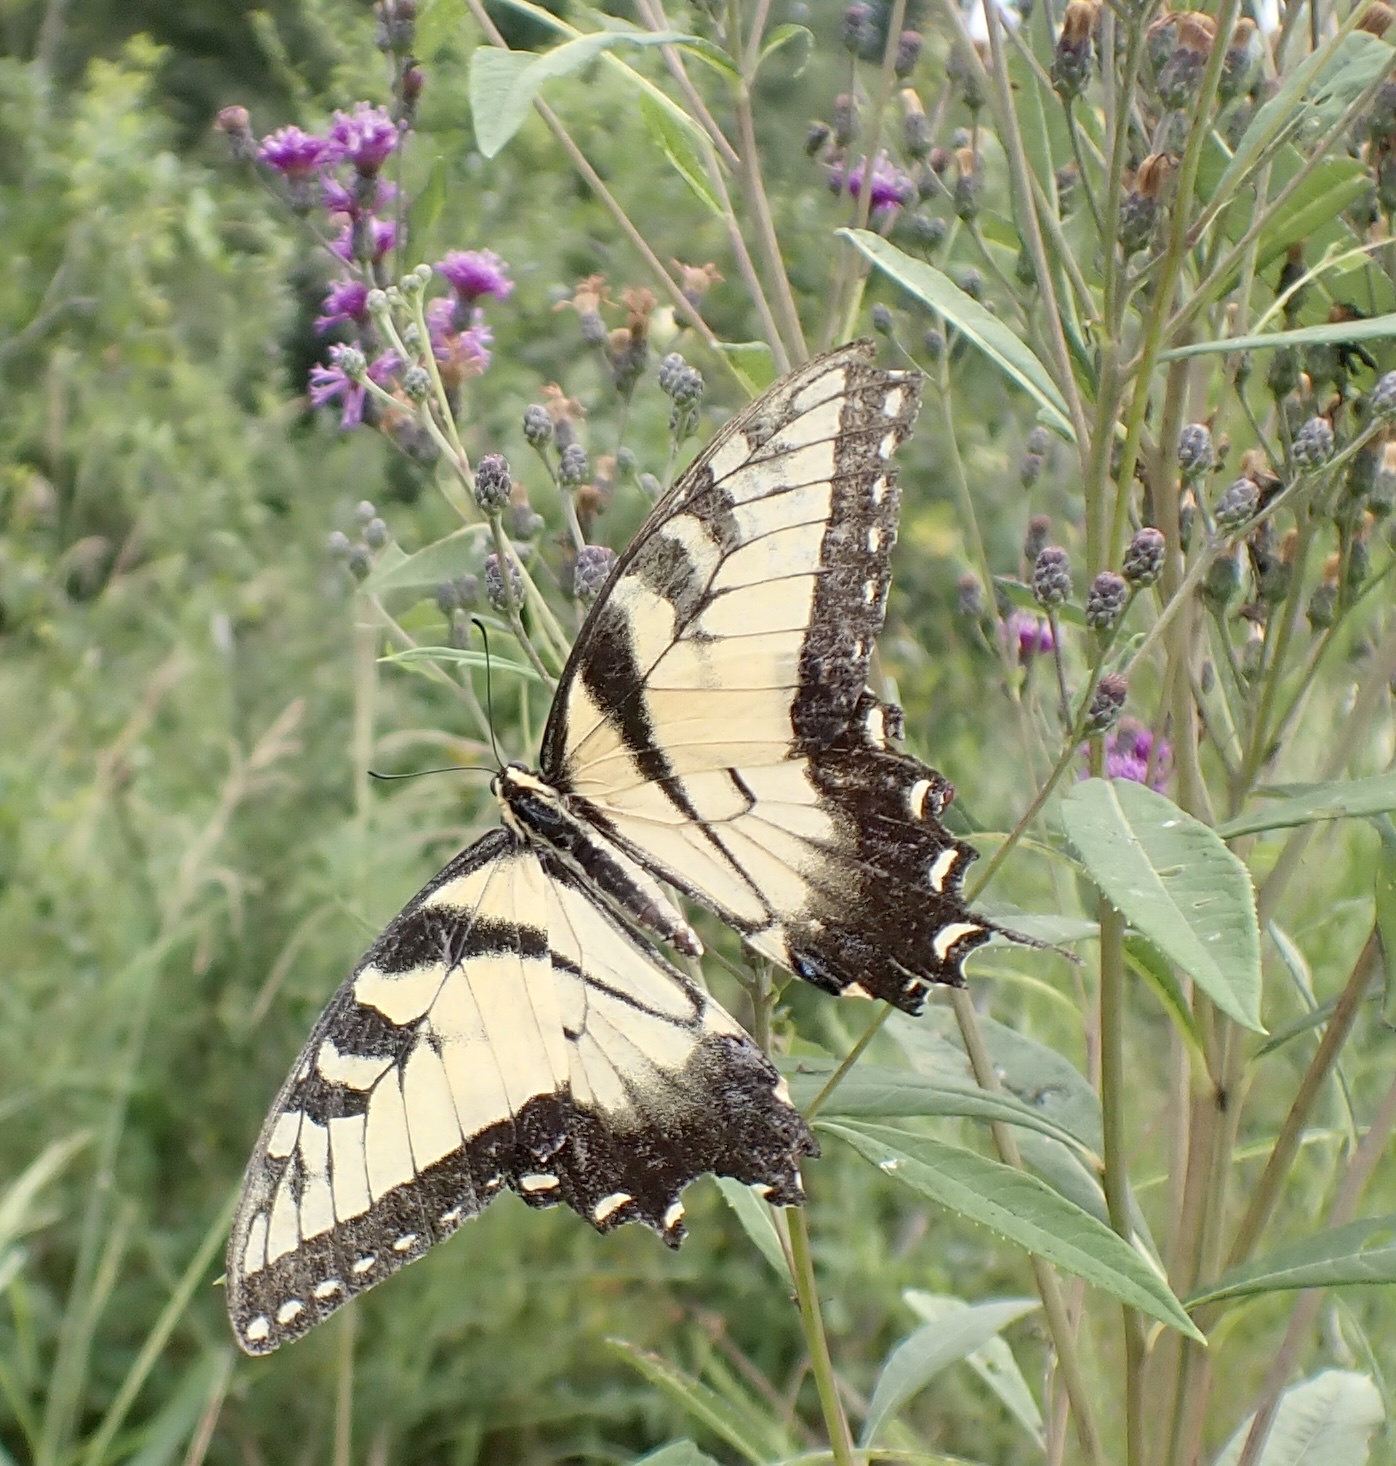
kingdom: Animalia
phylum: Arthropoda
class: Insecta
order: Lepidoptera
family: Papilionidae
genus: Papilio
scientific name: Papilio glaucus
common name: Tiger swallowtail
